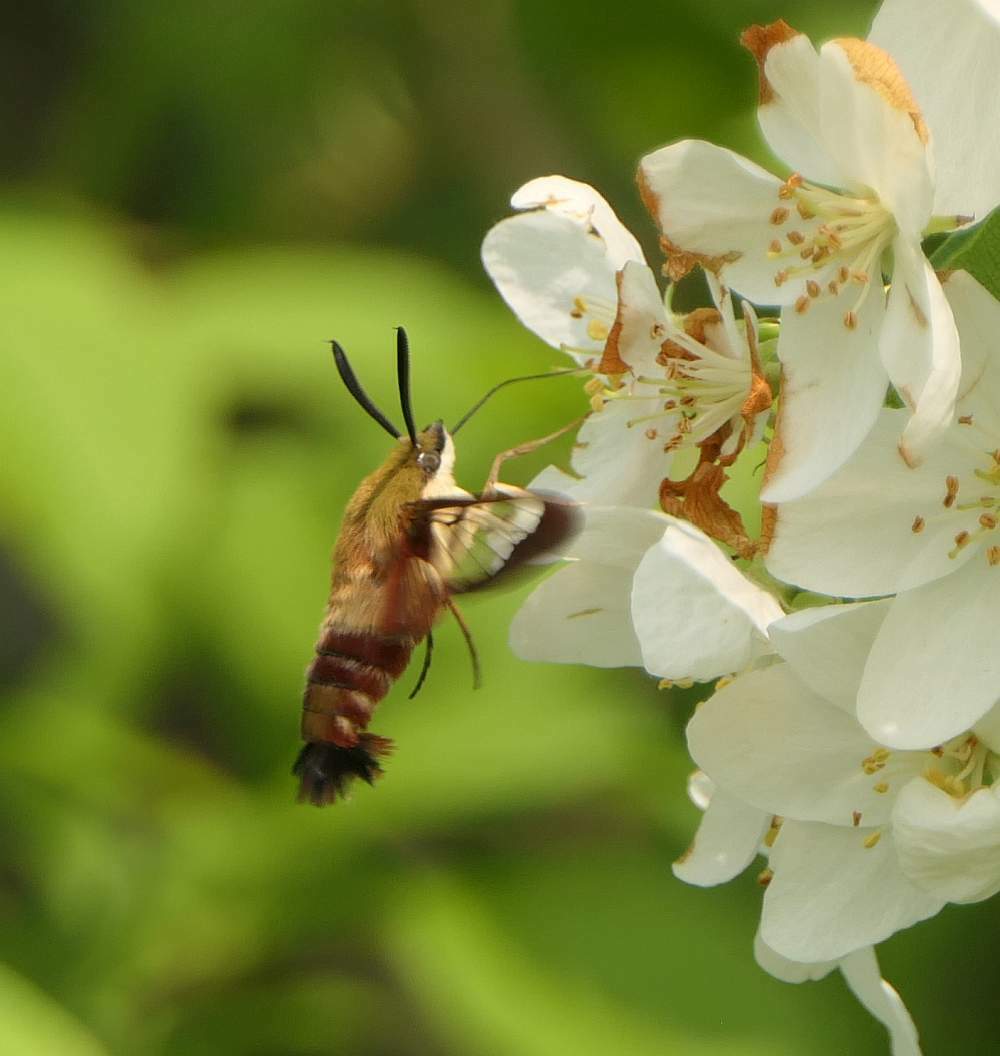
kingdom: Animalia
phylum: Arthropoda
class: Insecta
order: Lepidoptera
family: Sphingidae
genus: Hemaris
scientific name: Hemaris thysbe
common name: Common clear-wing
